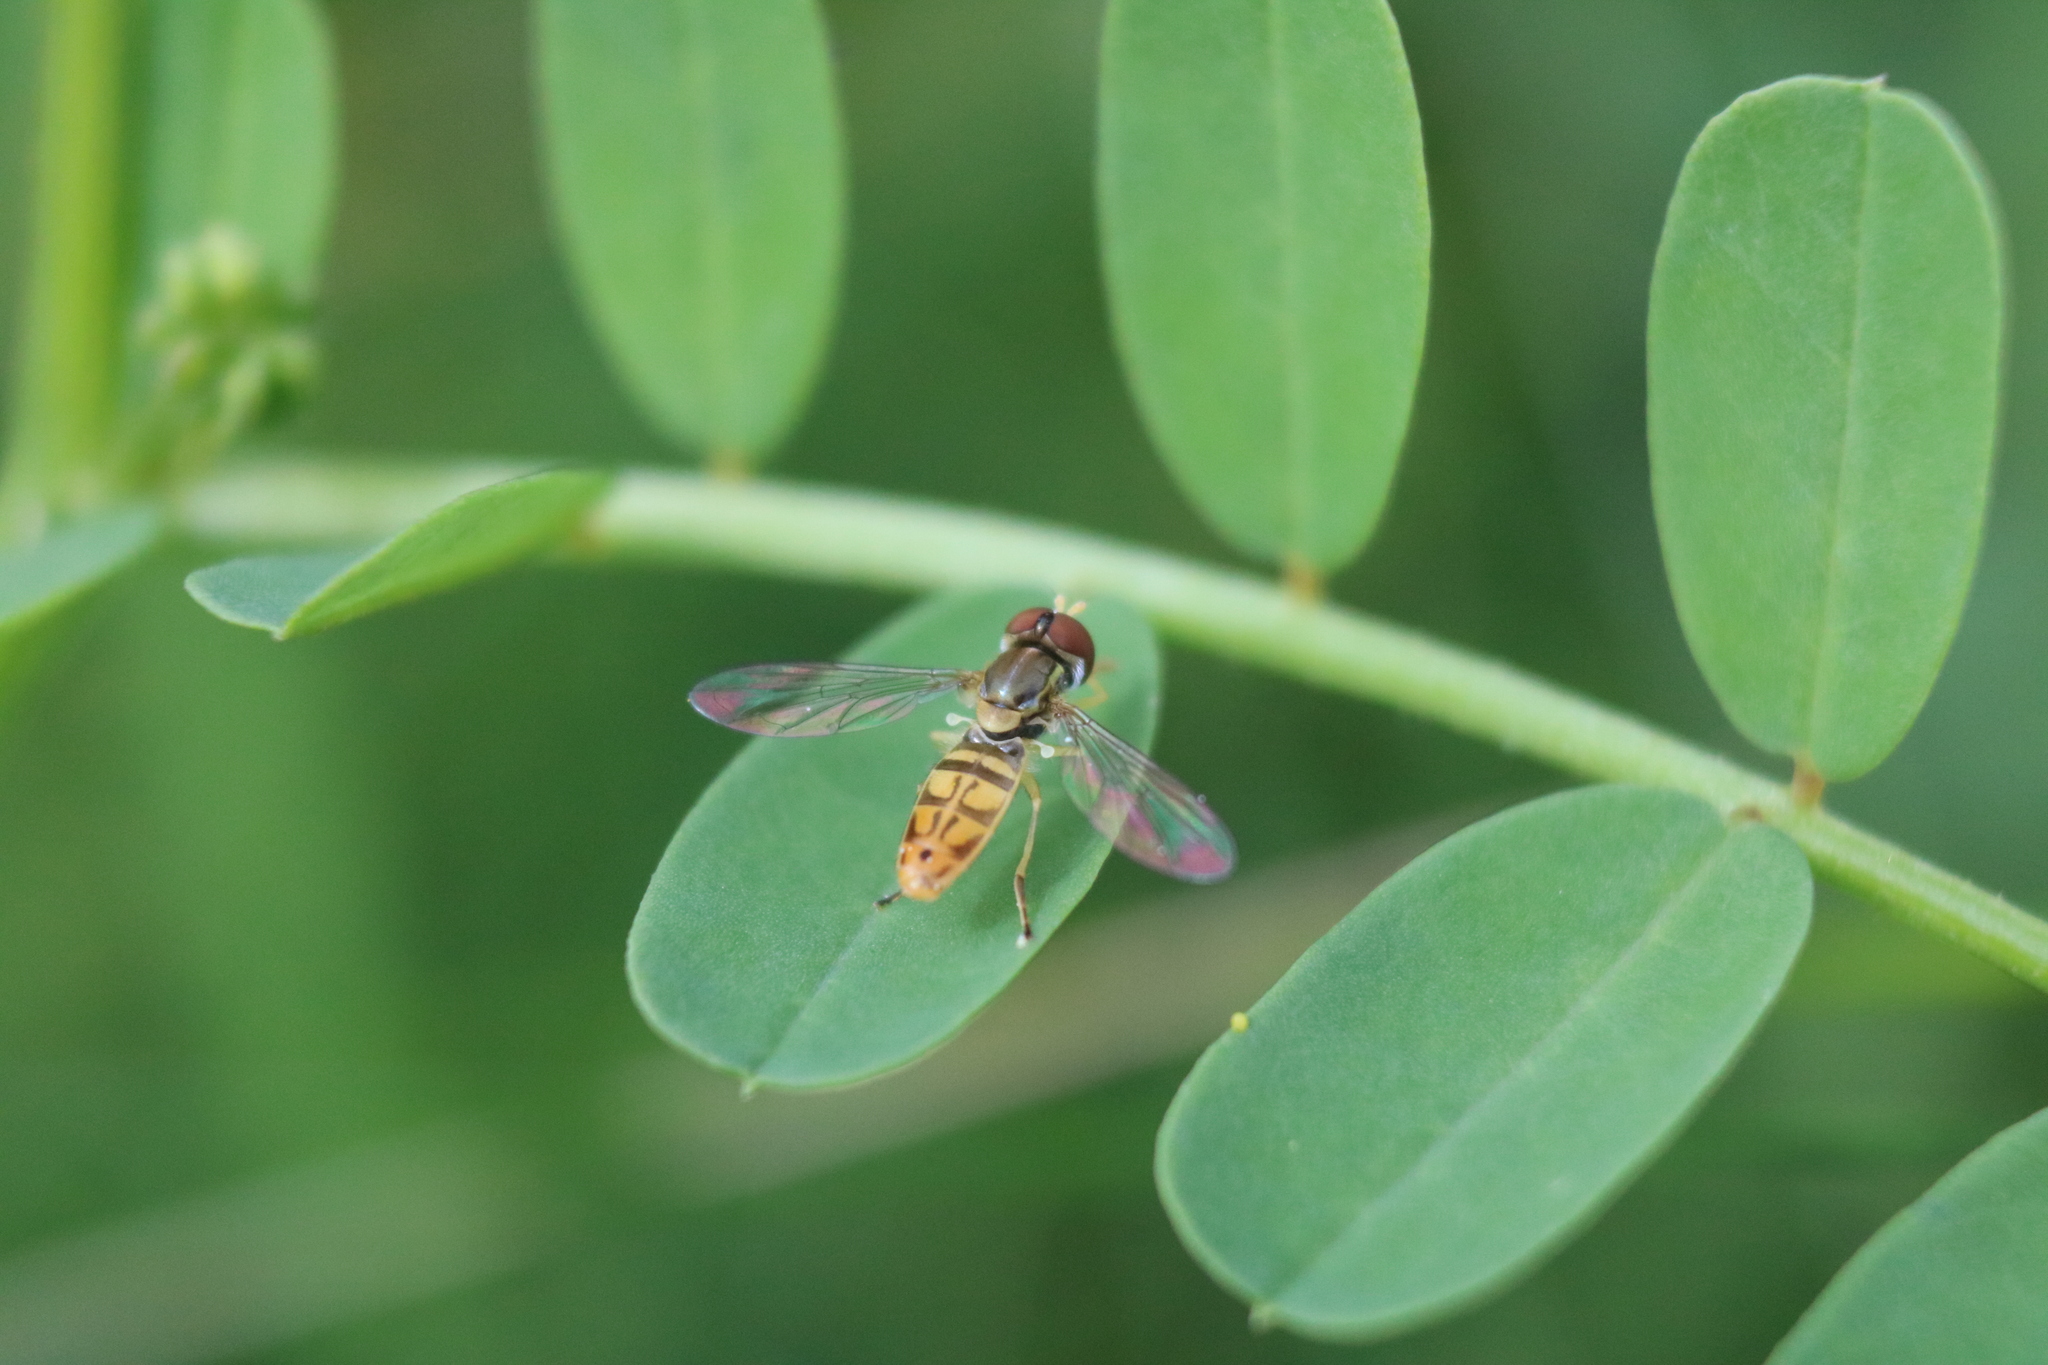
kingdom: Animalia
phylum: Arthropoda
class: Insecta
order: Diptera
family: Syrphidae
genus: Toxomerus
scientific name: Toxomerus marginatus
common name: Syrphid fly
